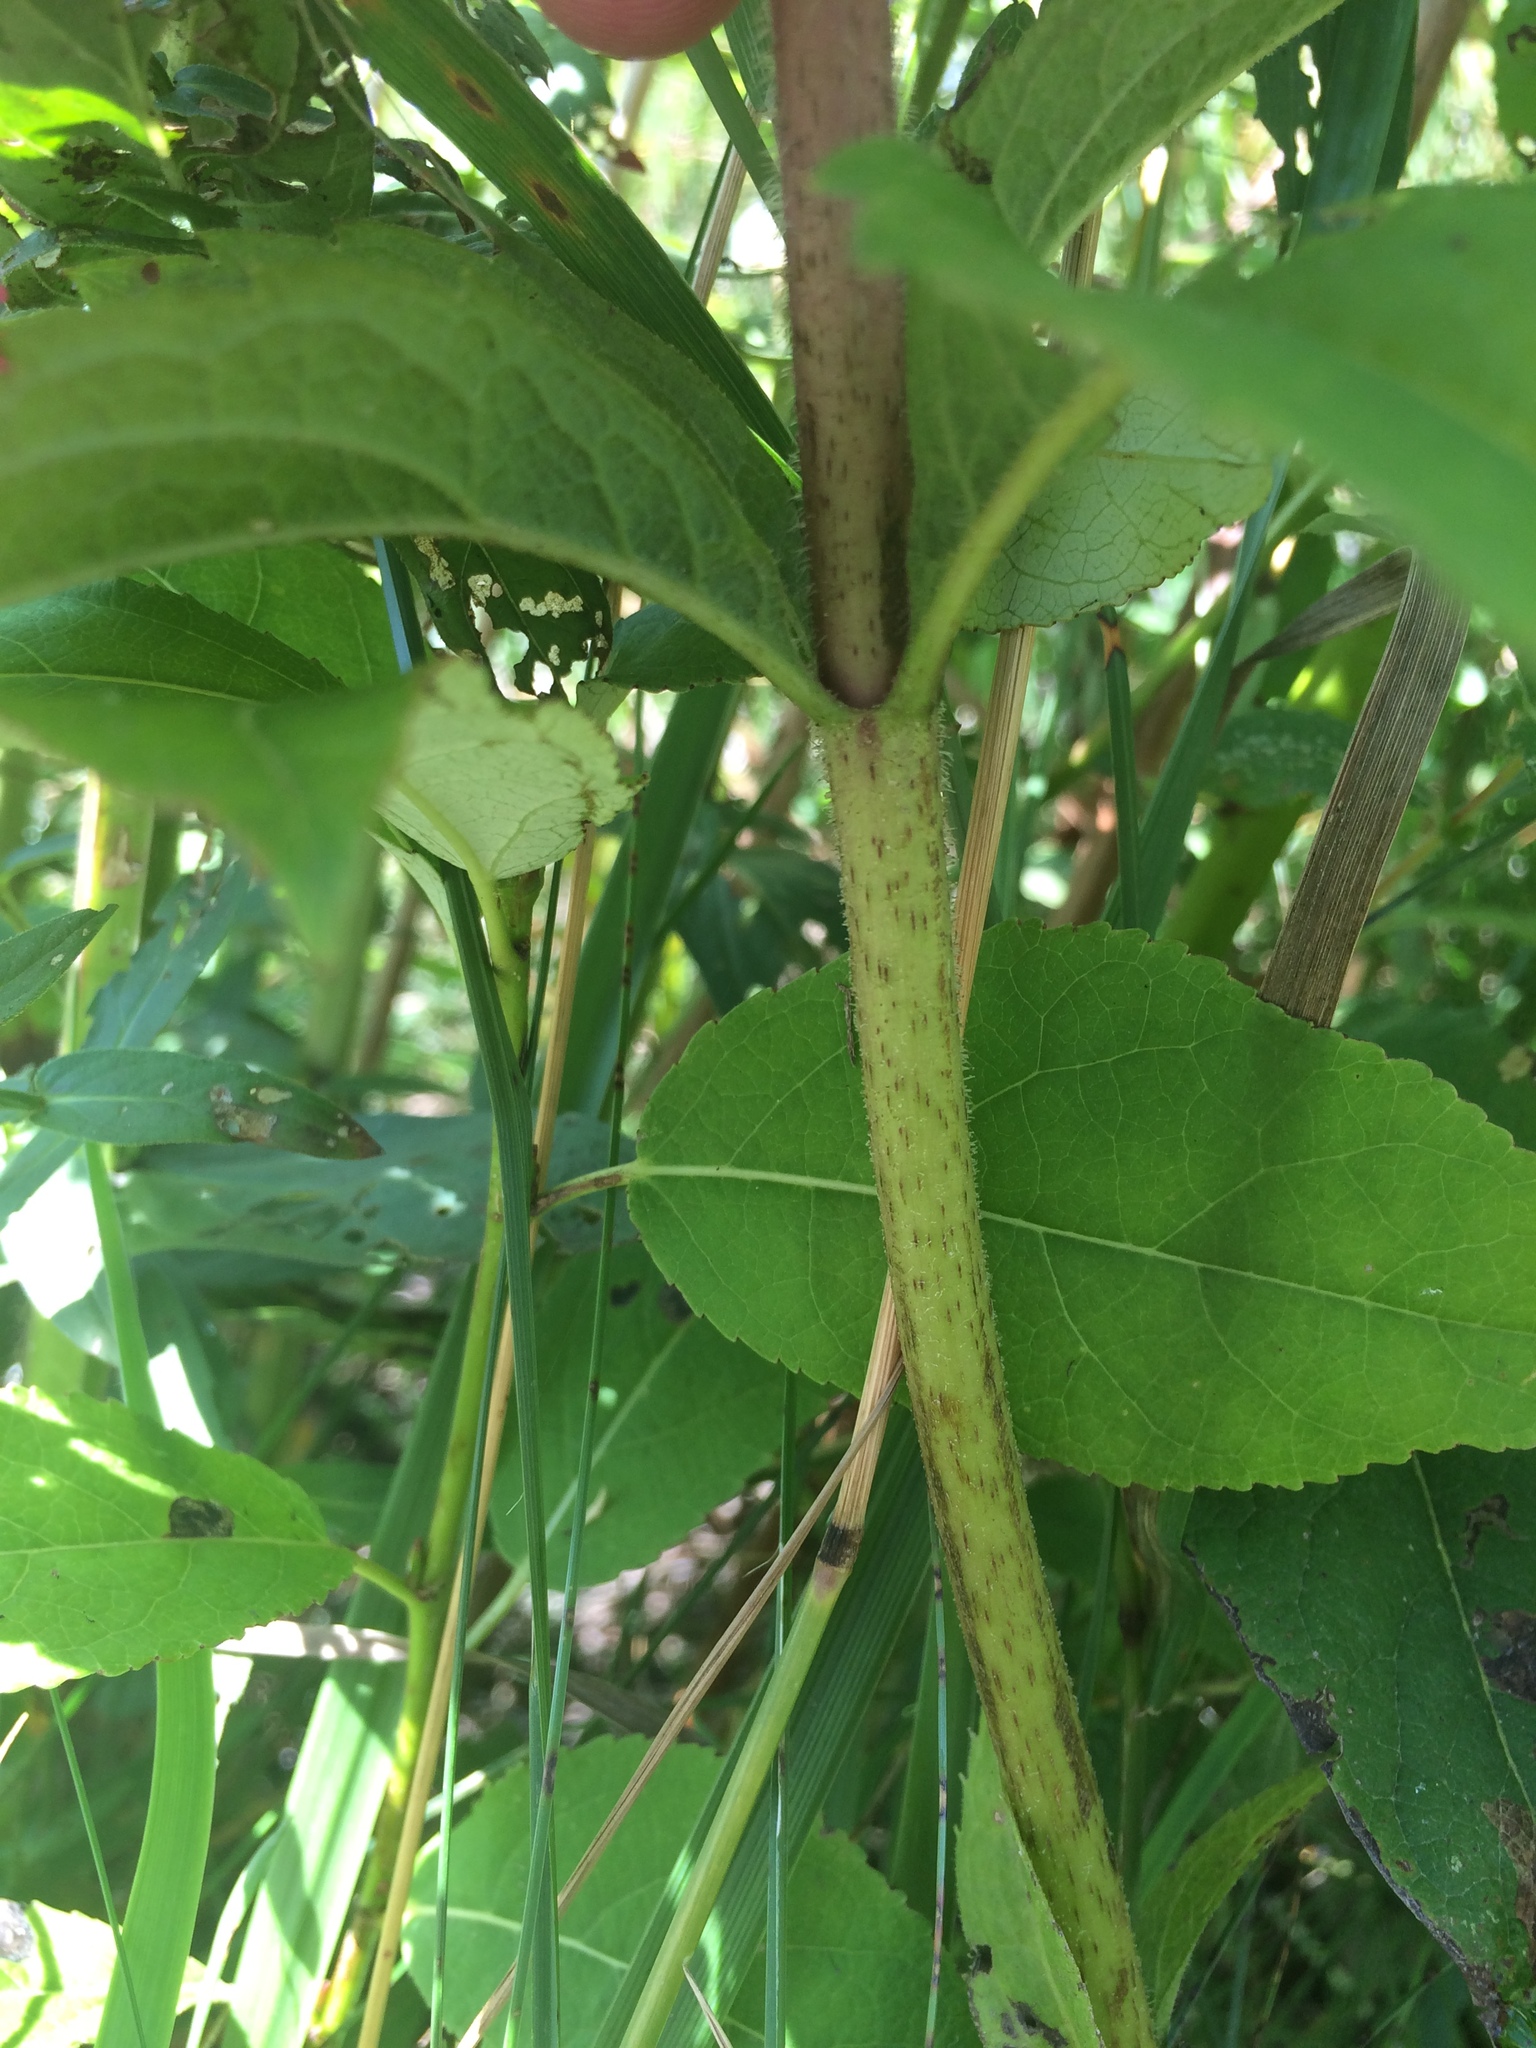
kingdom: Plantae
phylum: Tracheophyta
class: Magnoliopsida
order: Asterales
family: Asteraceae
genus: Eutrochium
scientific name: Eutrochium maculatum
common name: Spotted joe pye weed
